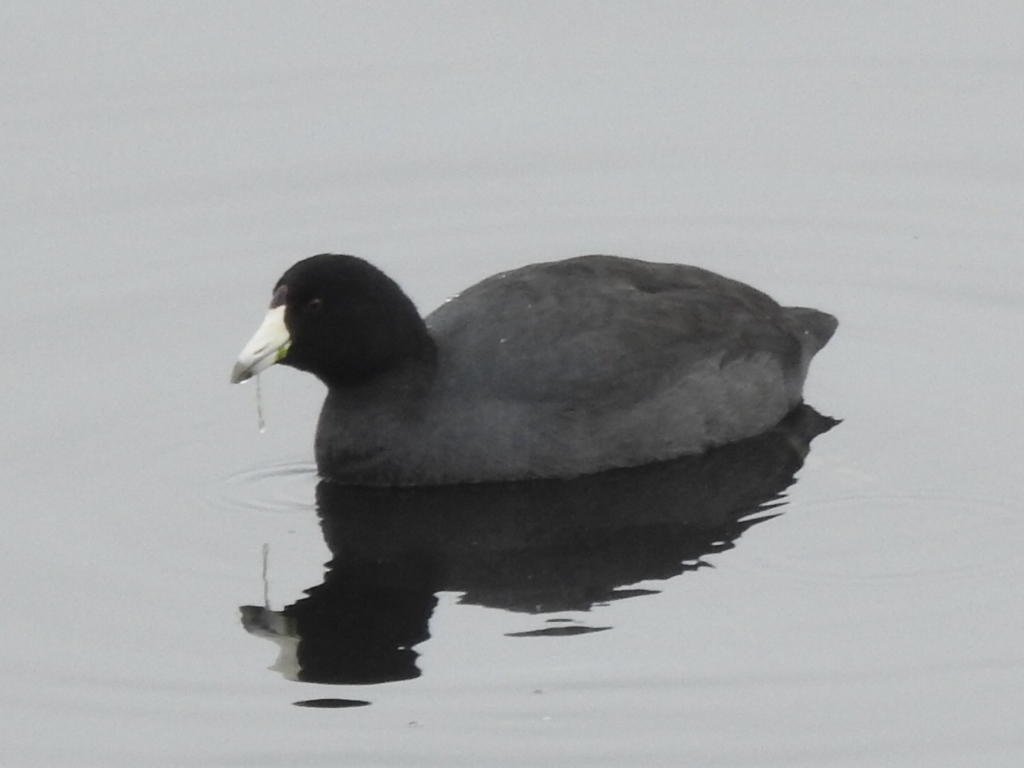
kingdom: Animalia
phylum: Chordata
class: Aves
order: Gruiformes
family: Rallidae
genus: Fulica
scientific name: Fulica americana
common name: American coot
